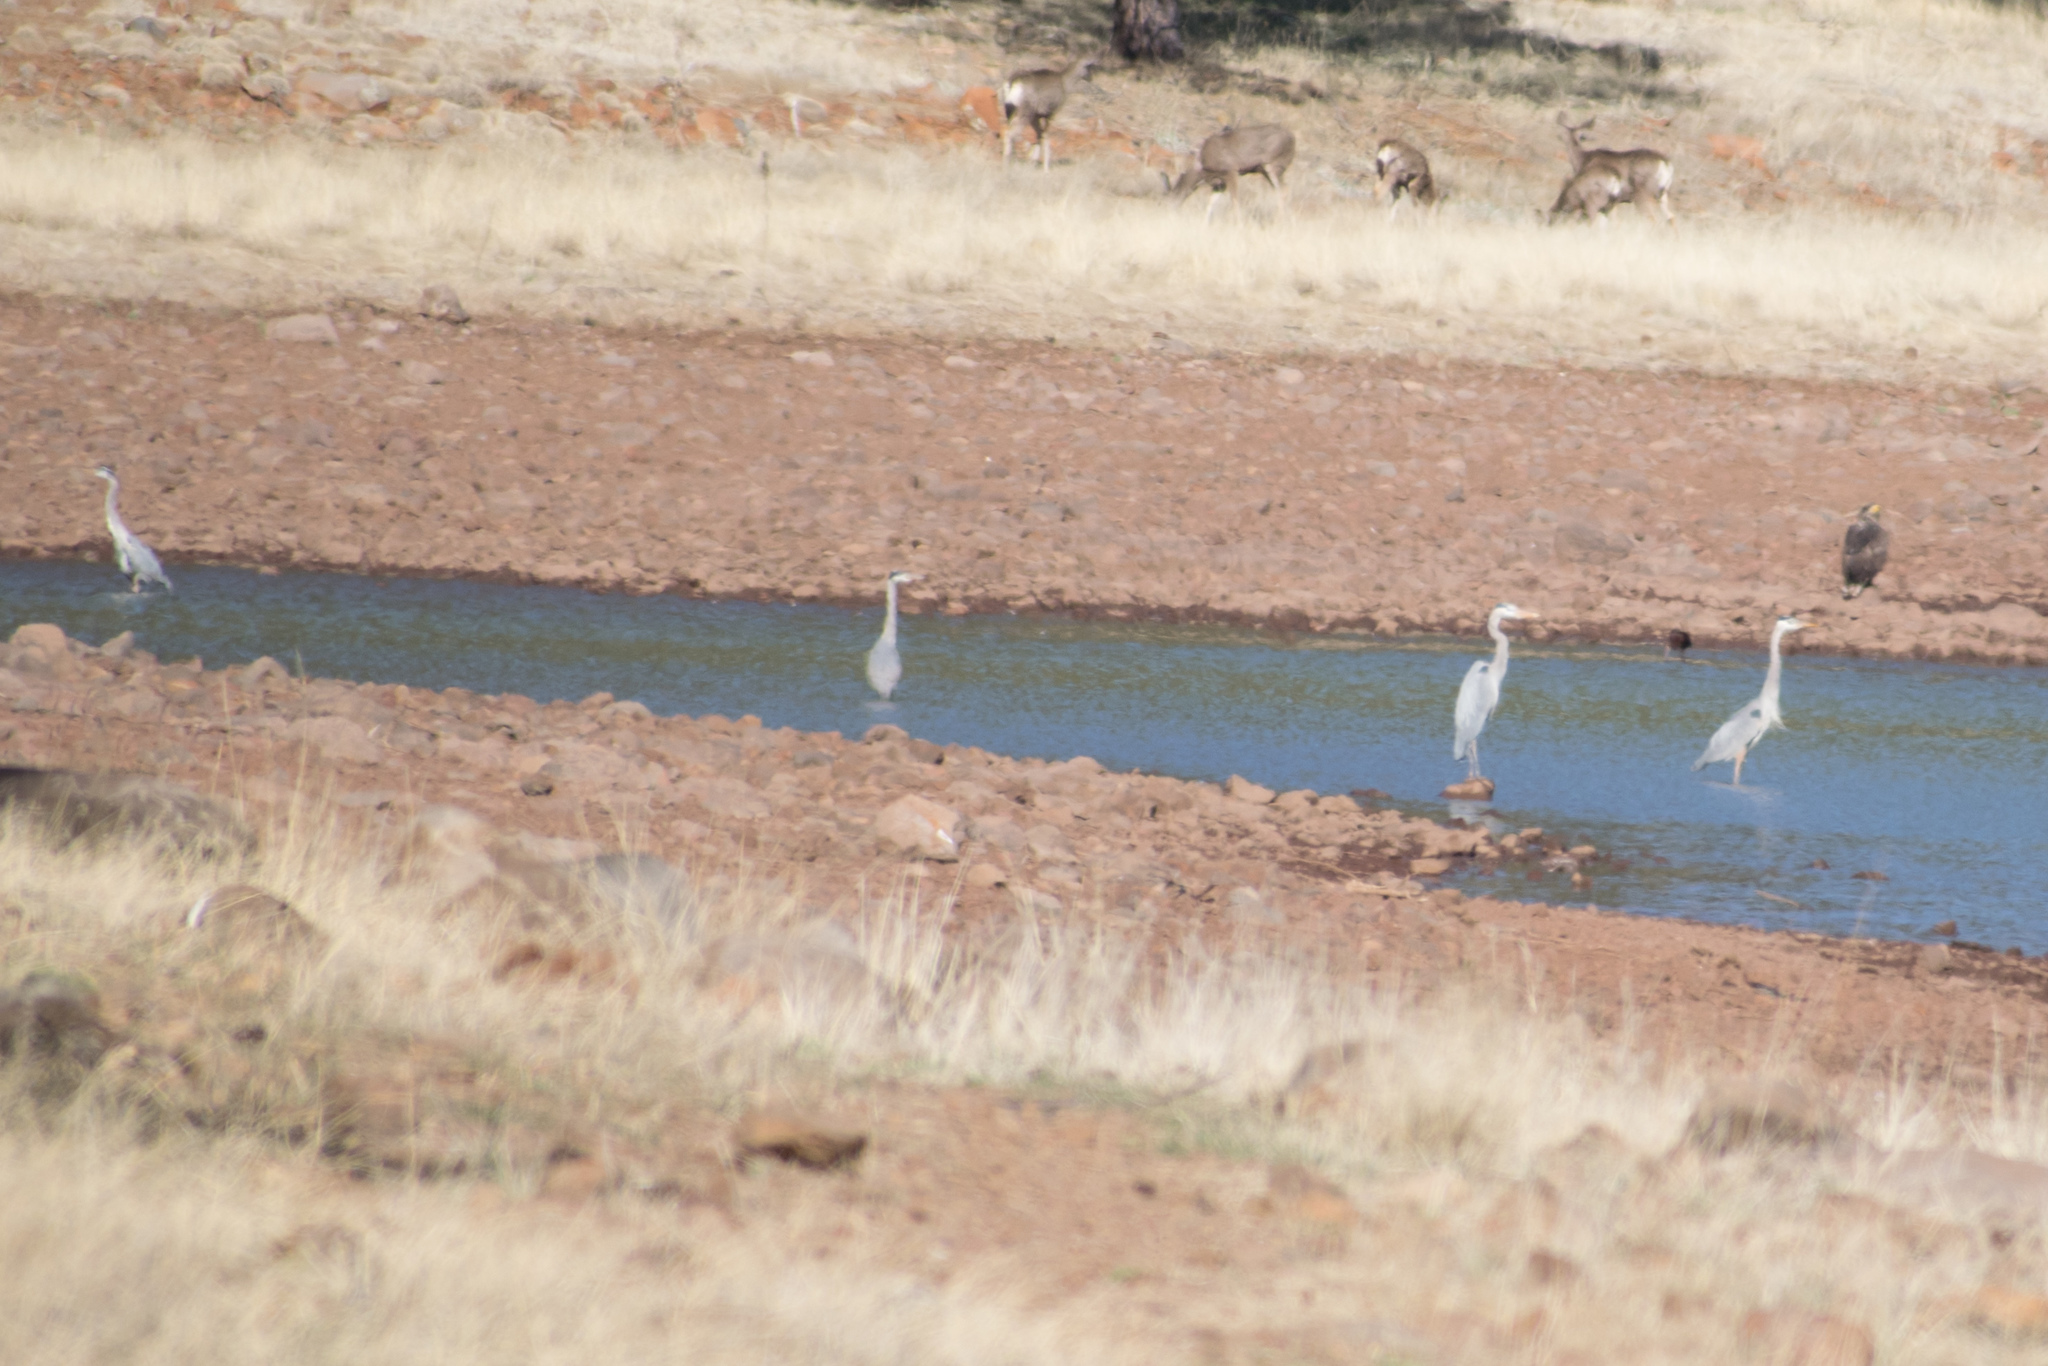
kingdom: Animalia
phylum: Chordata
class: Aves
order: Pelecaniformes
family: Ardeidae
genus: Ardea
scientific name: Ardea herodias
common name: Great blue heron
